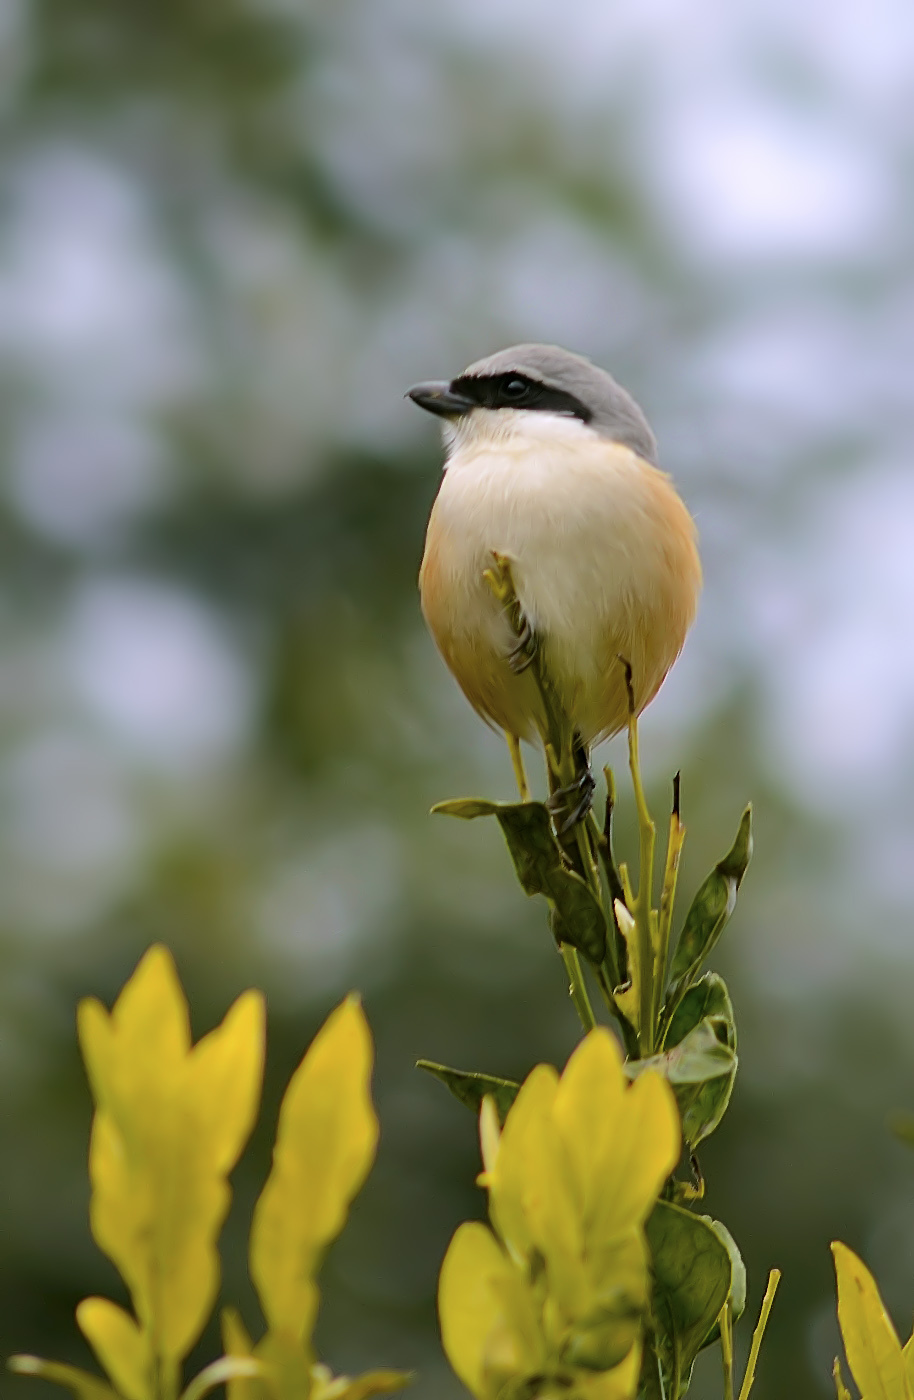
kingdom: Animalia
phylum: Chordata
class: Aves
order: Passeriformes
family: Laniidae
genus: Lanius
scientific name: Lanius schach
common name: Long-tailed shrike
